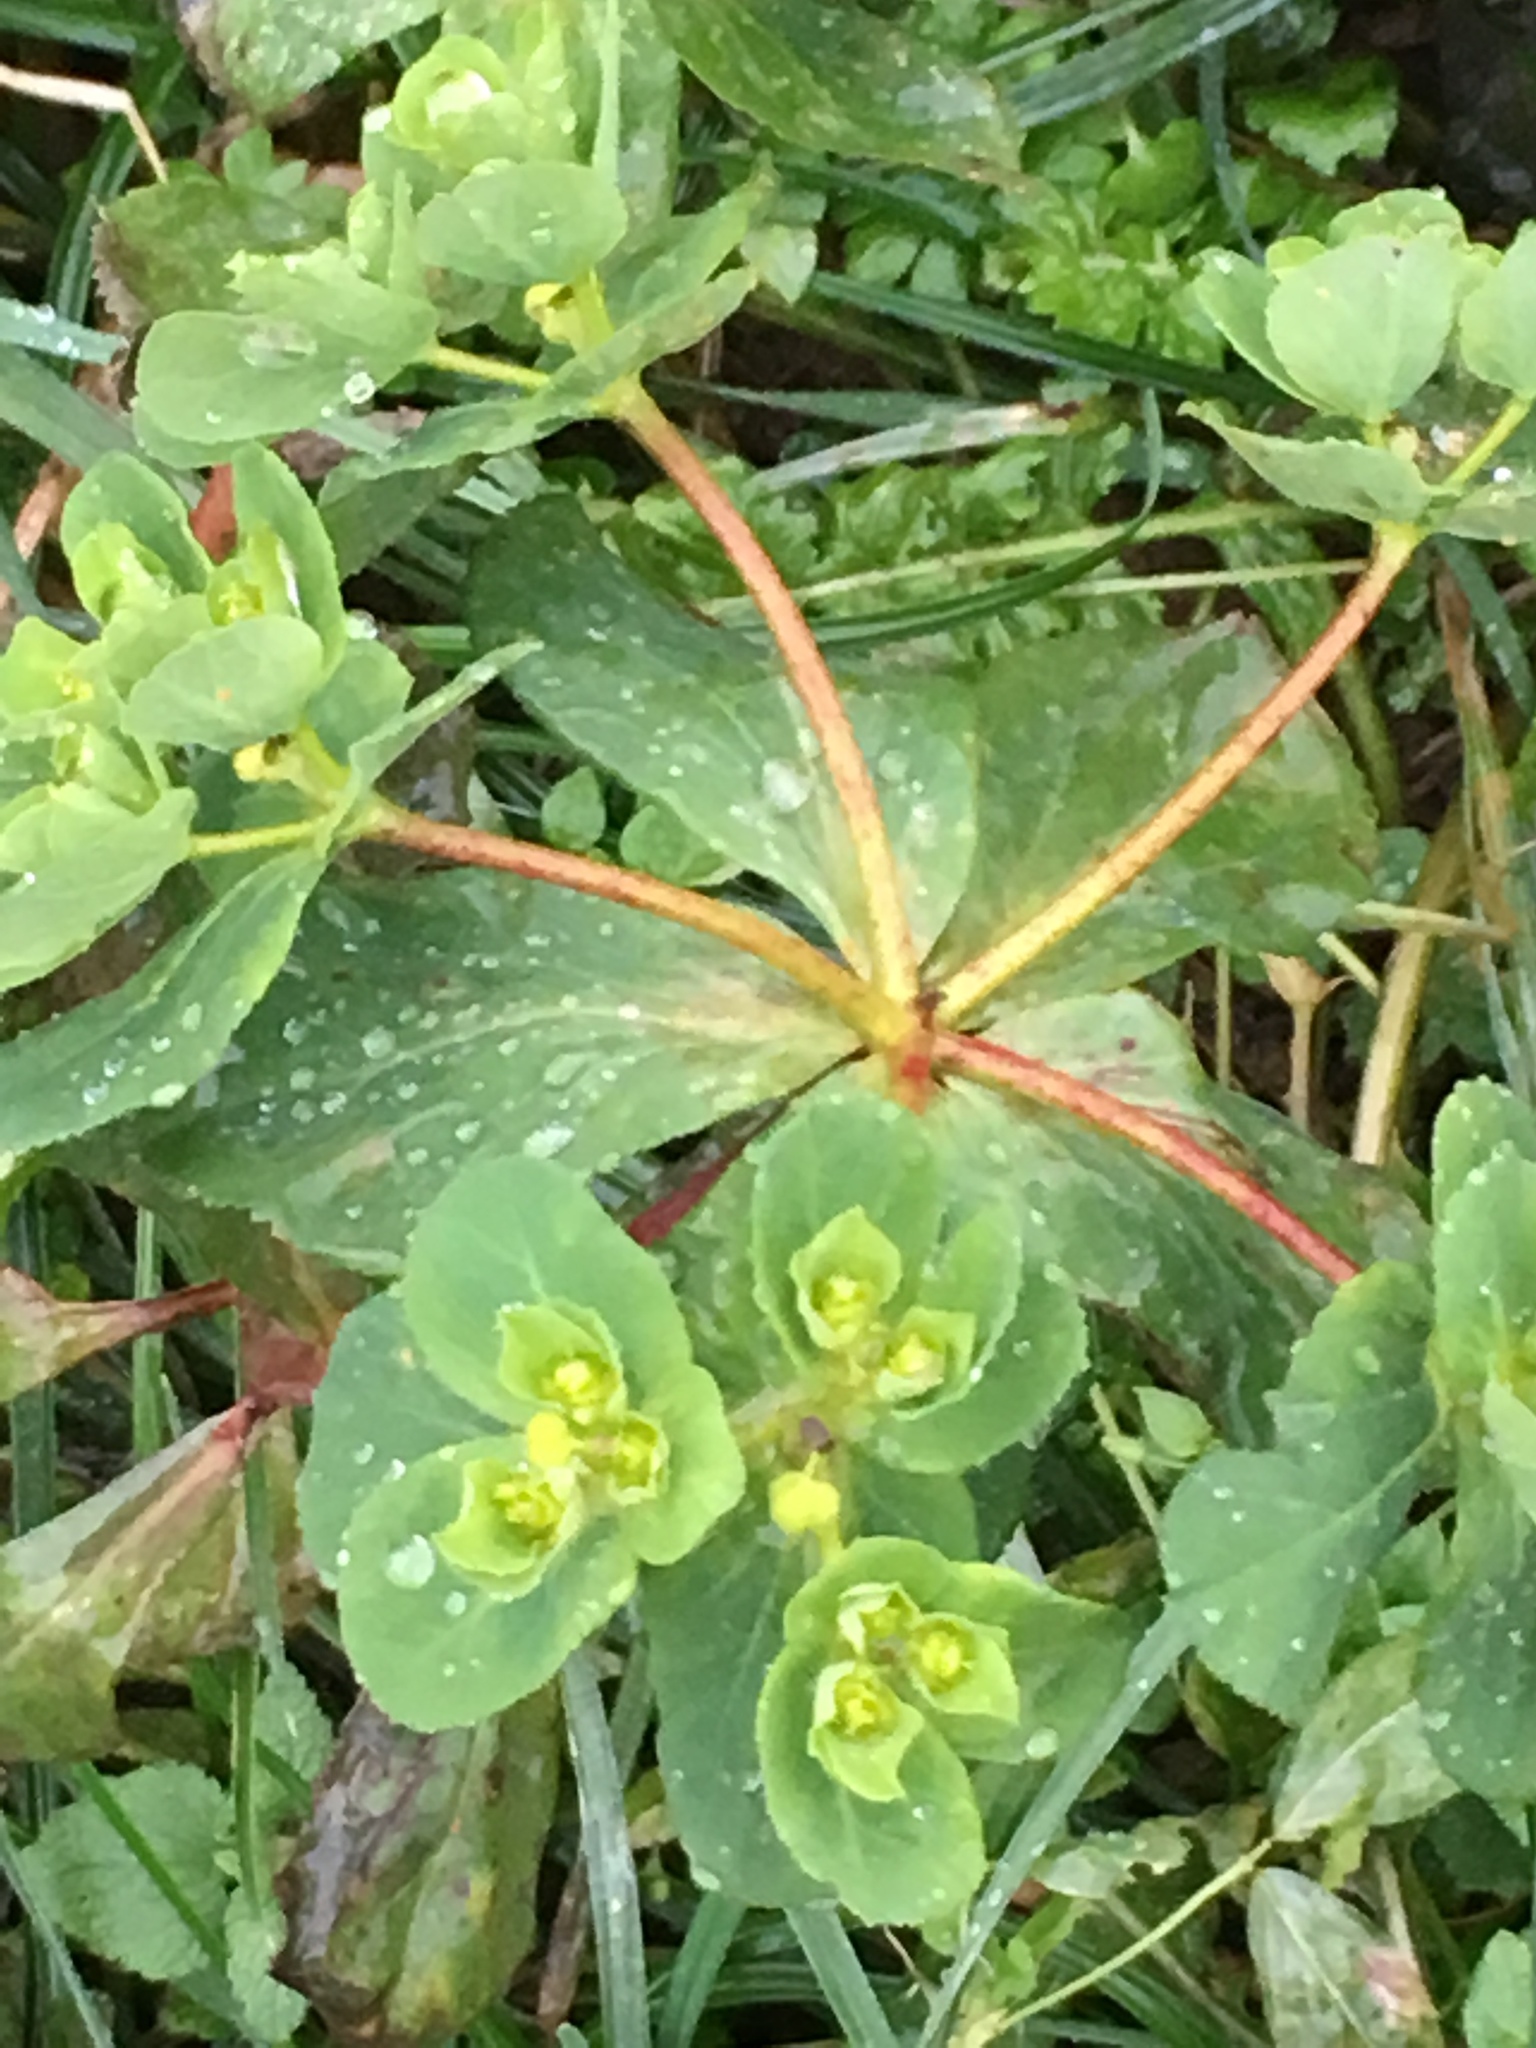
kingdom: Plantae
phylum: Tracheophyta
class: Magnoliopsida
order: Malpighiales
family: Euphorbiaceae
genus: Euphorbia
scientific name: Euphorbia helioscopia
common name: Sun spurge
